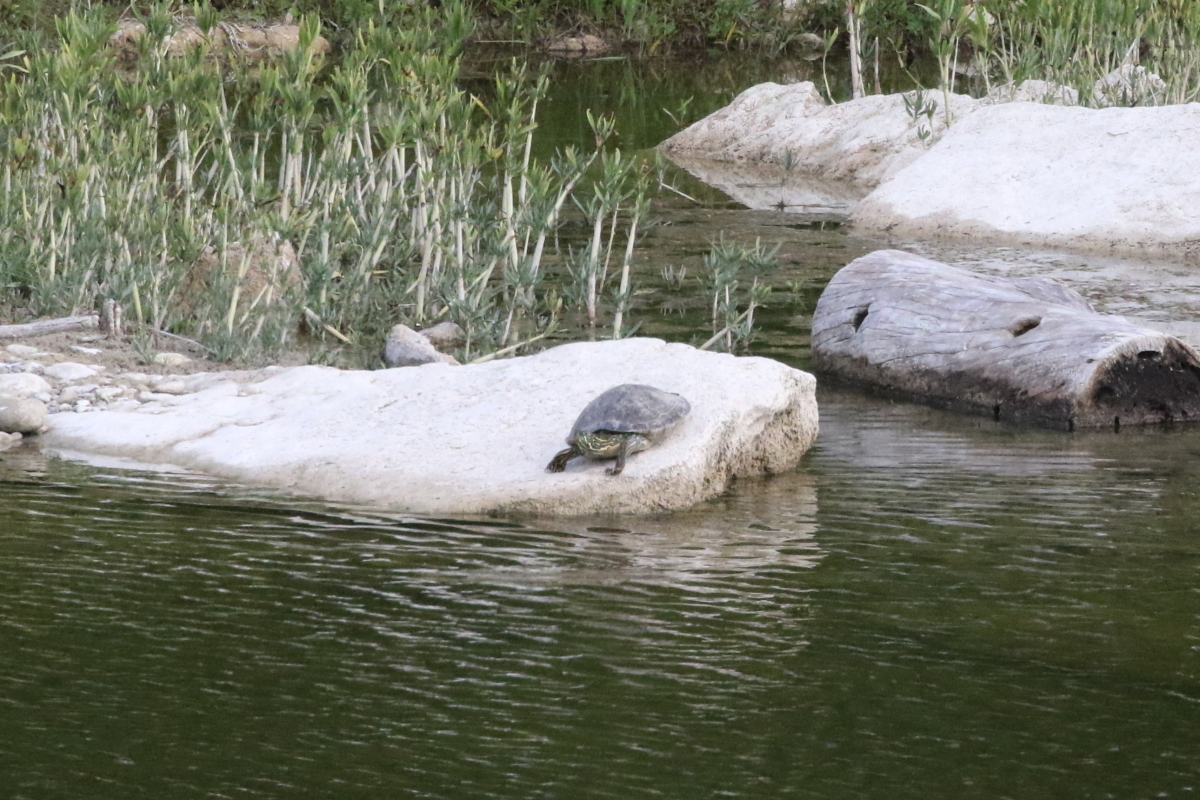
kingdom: Animalia
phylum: Chordata
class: Testudines
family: Emydidae
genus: Pseudemys
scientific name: Pseudemys texana
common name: Texas river cooter
